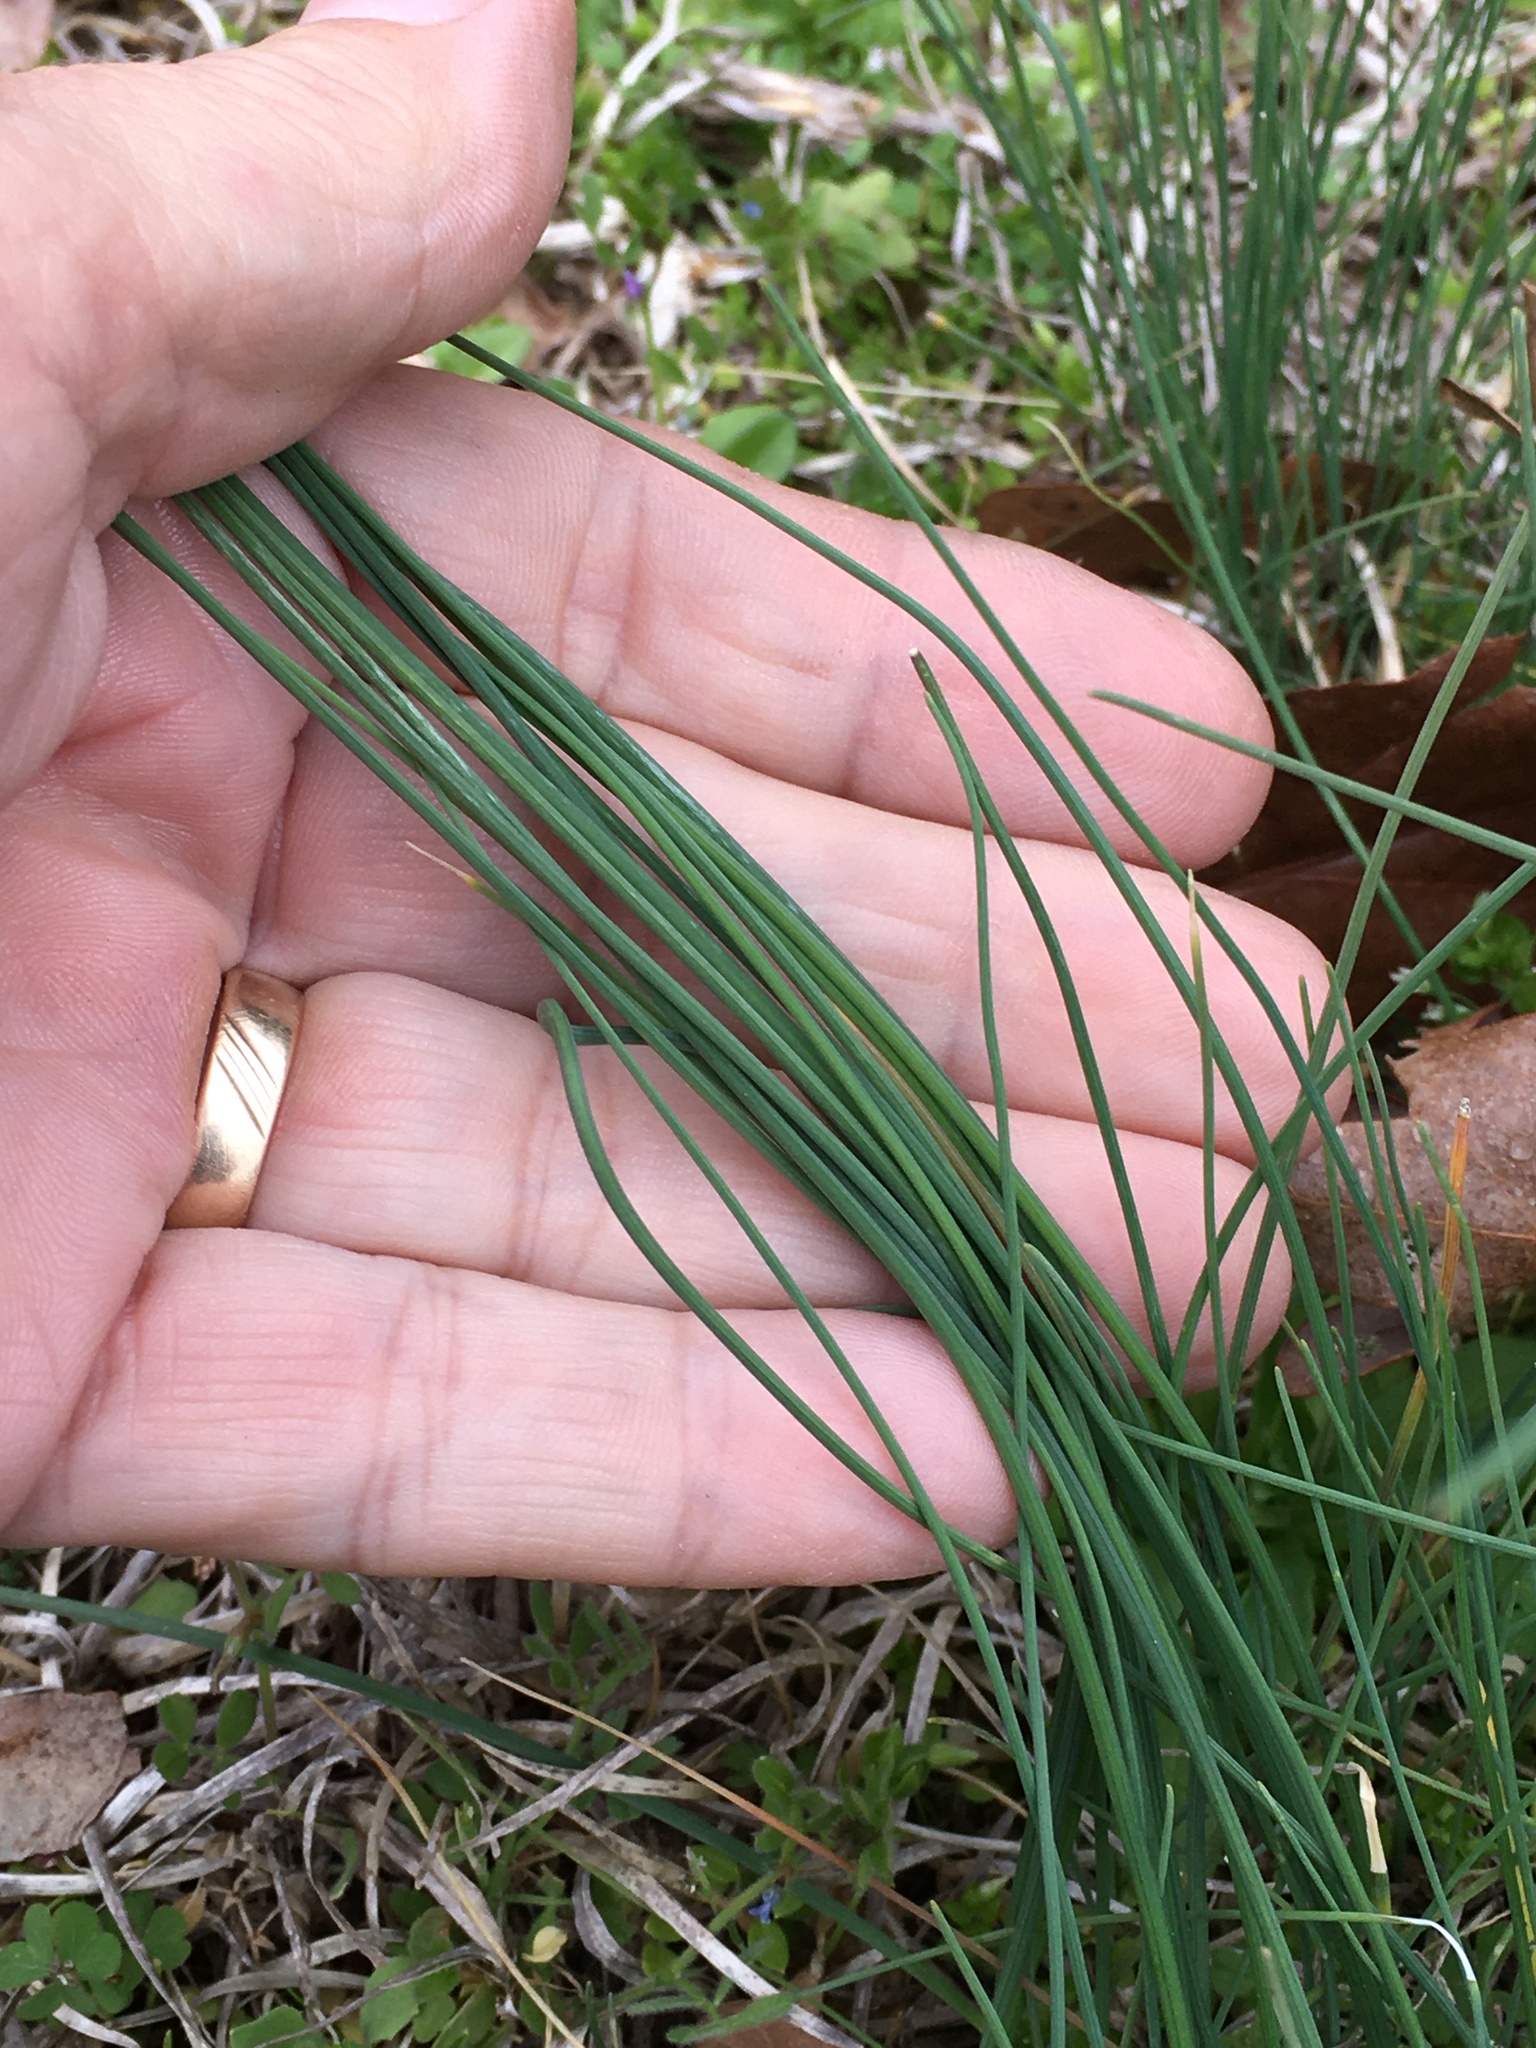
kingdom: Plantae
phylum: Tracheophyta
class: Liliopsida
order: Asparagales
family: Amaryllidaceae
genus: Allium
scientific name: Allium vineale
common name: Crow garlic
